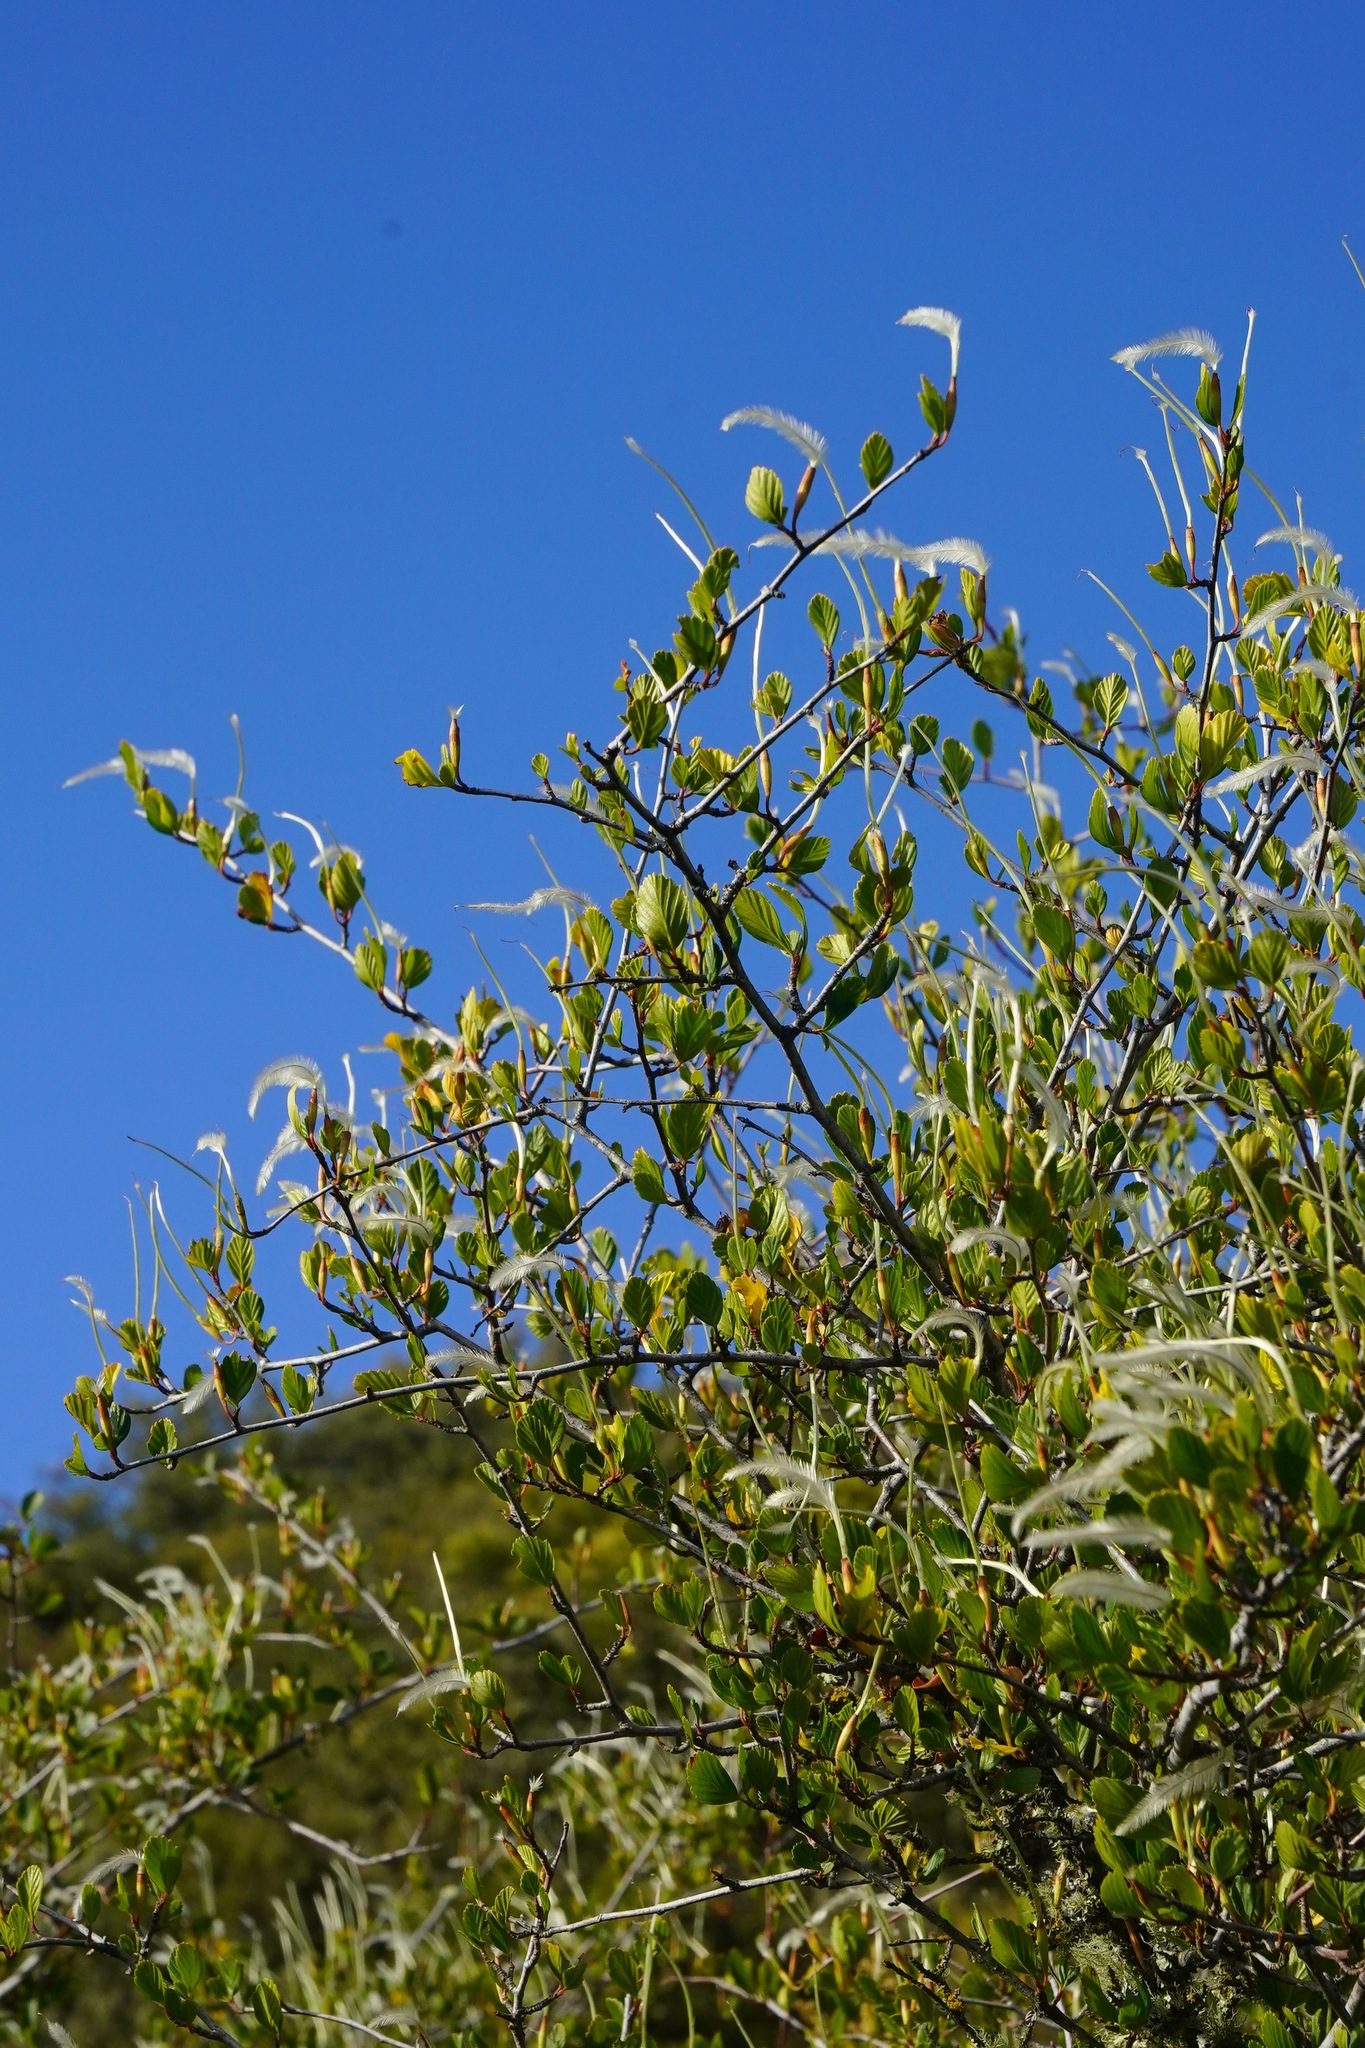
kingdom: Plantae
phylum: Tracheophyta
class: Magnoliopsida
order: Rosales
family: Rosaceae
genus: Cercocarpus
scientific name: Cercocarpus betuloides
